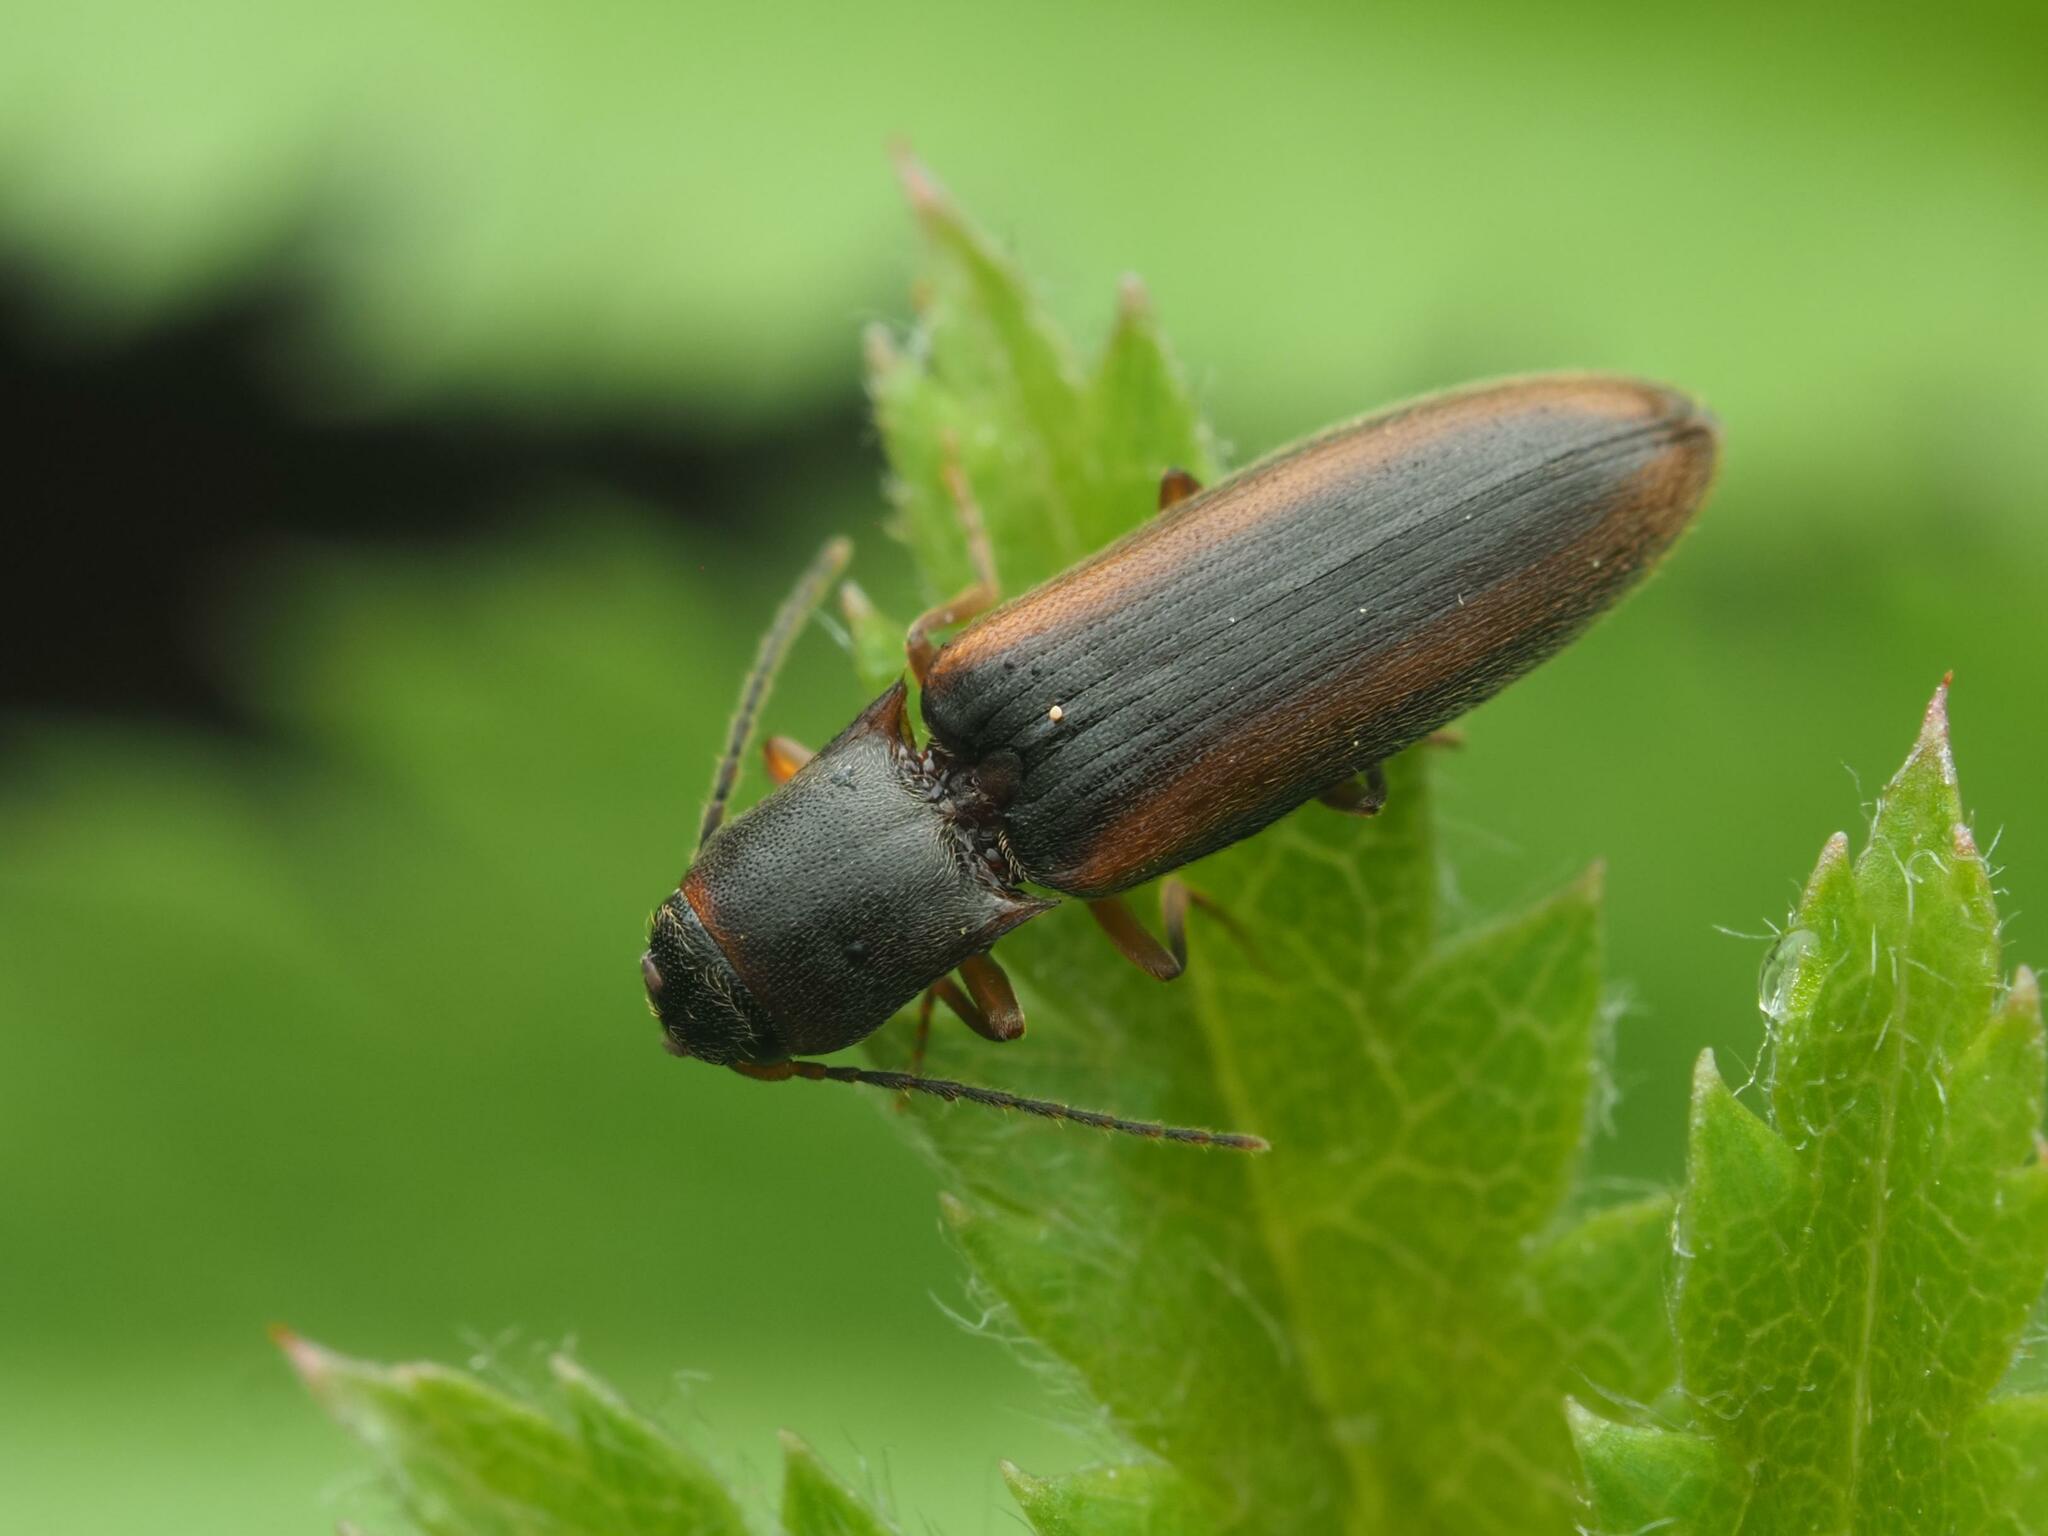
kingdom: Animalia
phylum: Arthropoda
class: Insecta
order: Coleoptera
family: Elateridae
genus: Dalopius
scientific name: Dalopius marginatus
